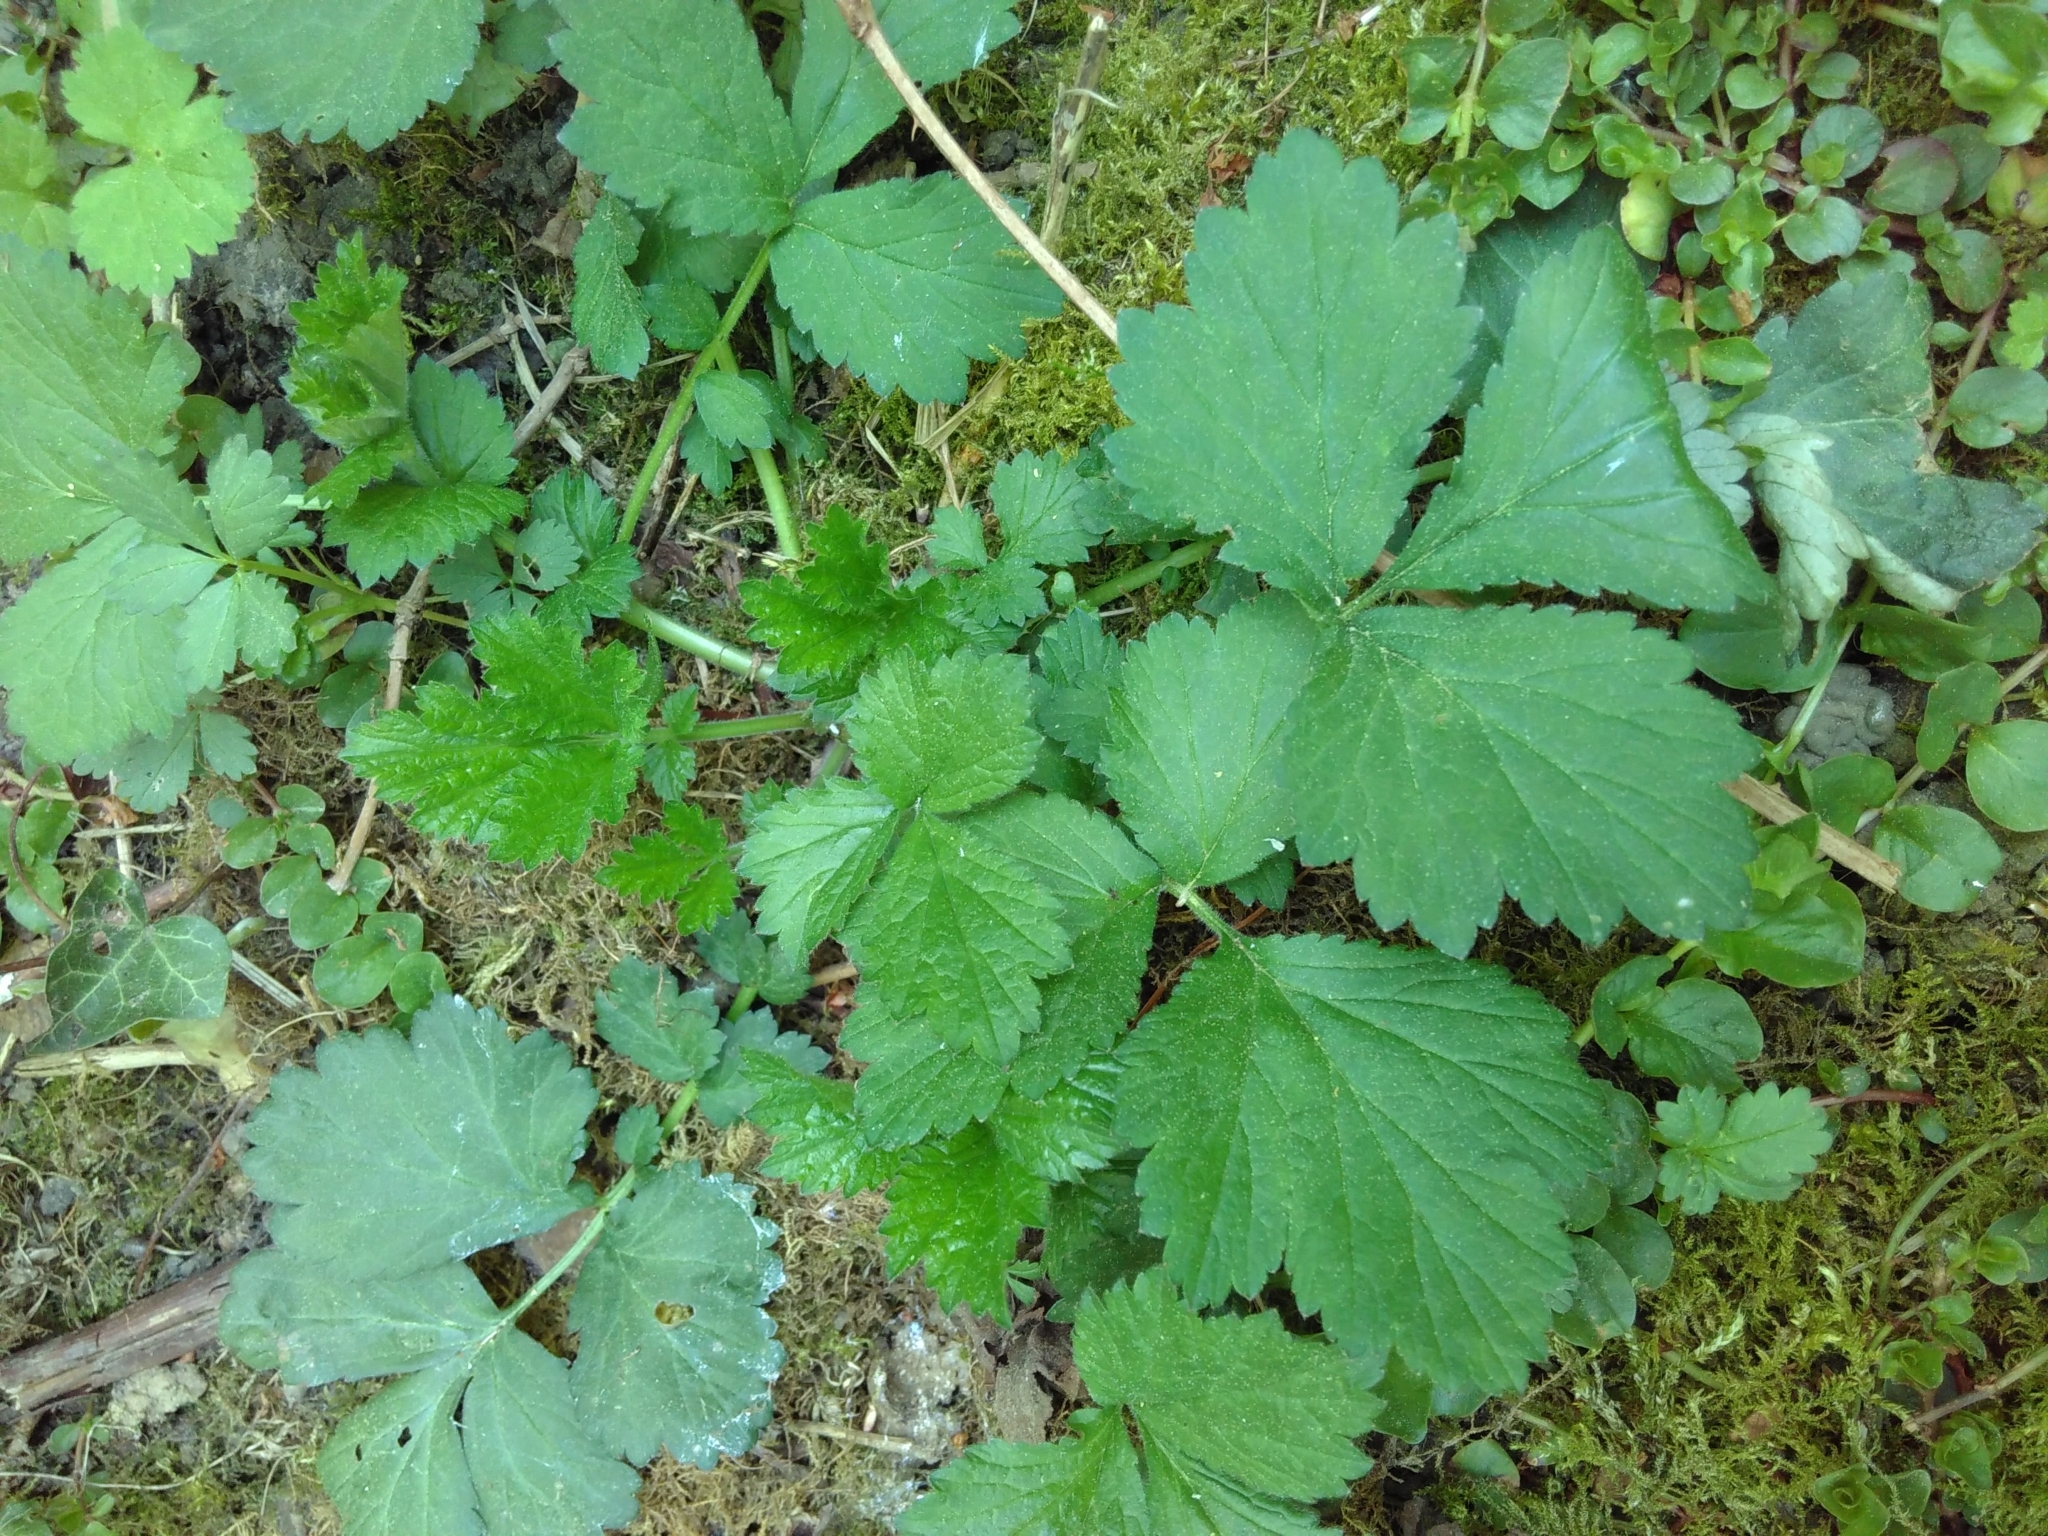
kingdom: Plantae
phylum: Tracheophyta
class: Magnoliopsida
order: Rosales
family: Rosaceae
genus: Geum
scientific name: Geum urbanum
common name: Wood avens
